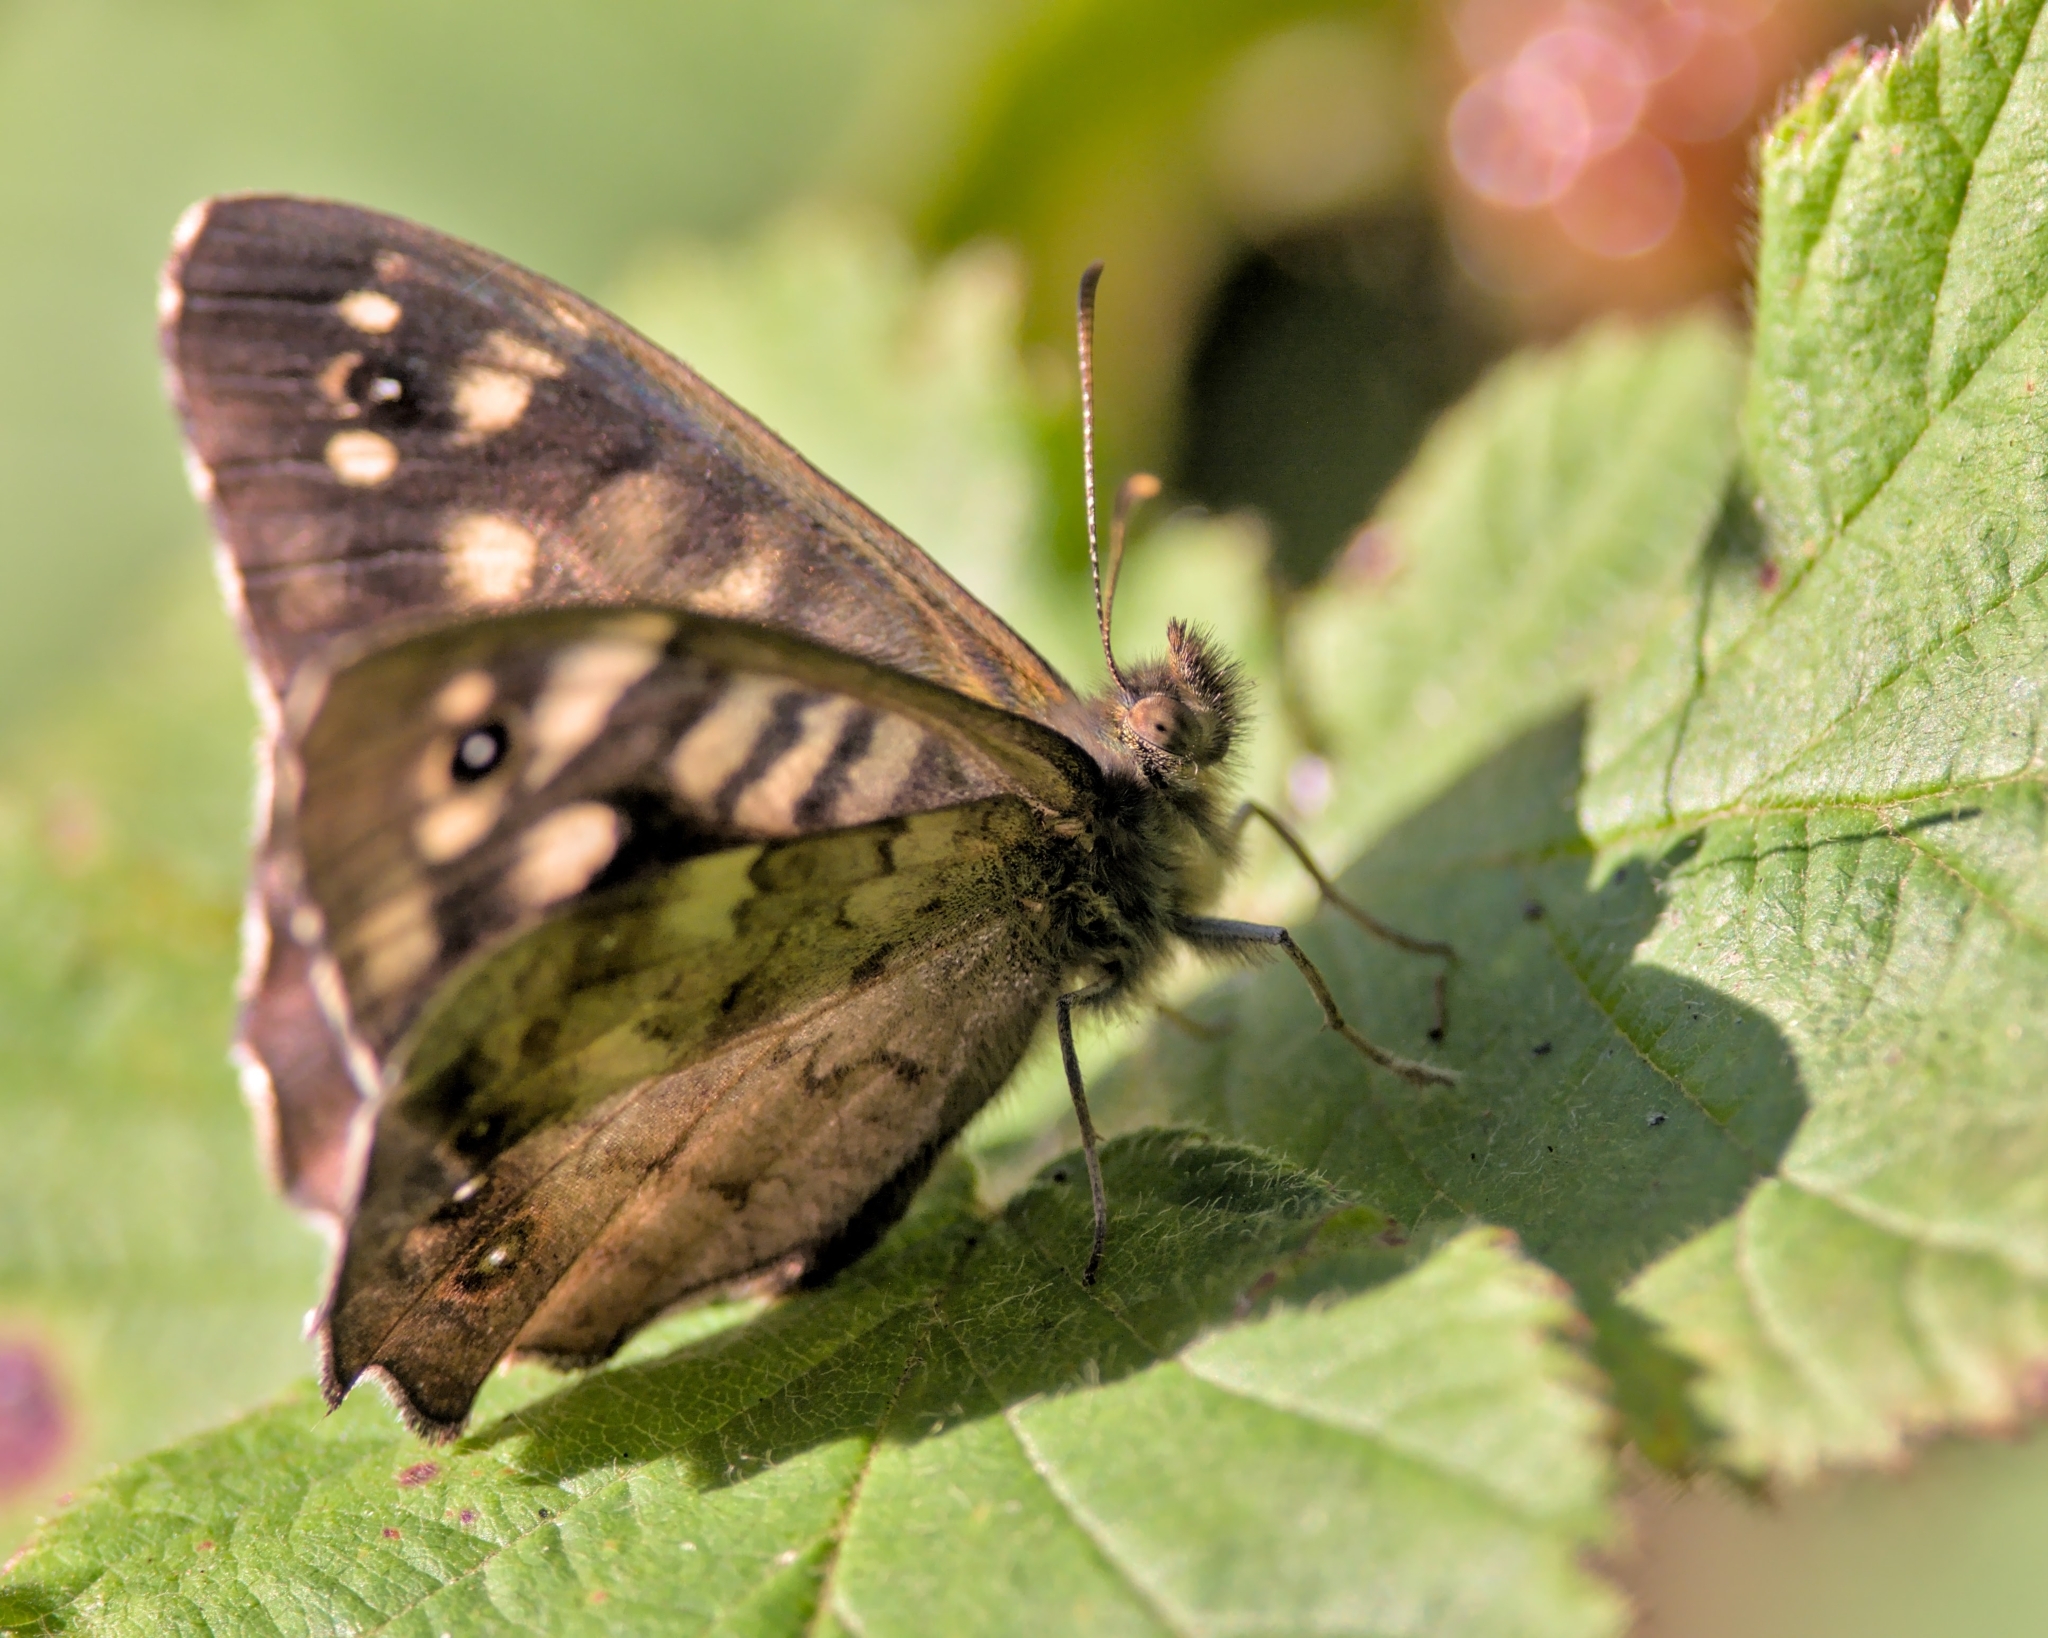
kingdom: Animalia
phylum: Arthropoda
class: Insecta
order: Lepidoptera
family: Nymphalidae
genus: Pararge
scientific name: Pararge aegeria
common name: Speckled wood
